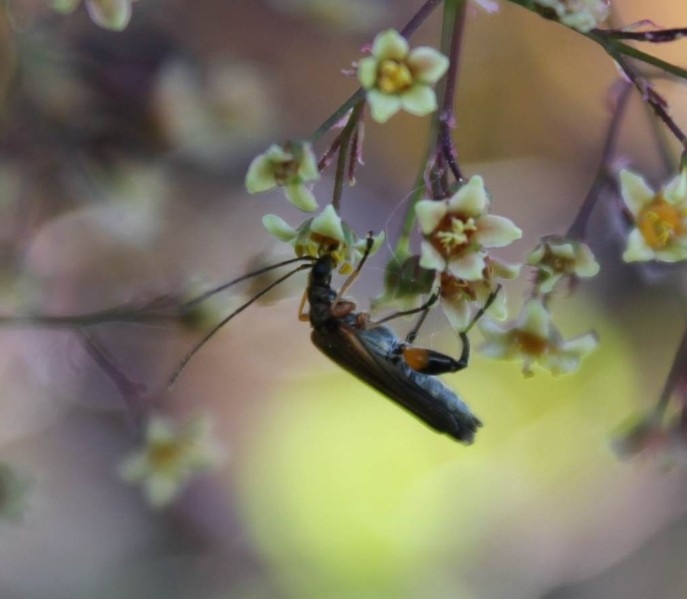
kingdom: Animalia
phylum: Arthropoda
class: Insecta
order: Coleoptera
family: Oedemeridae
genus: Oedemera
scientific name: Oedemera podagrariae
